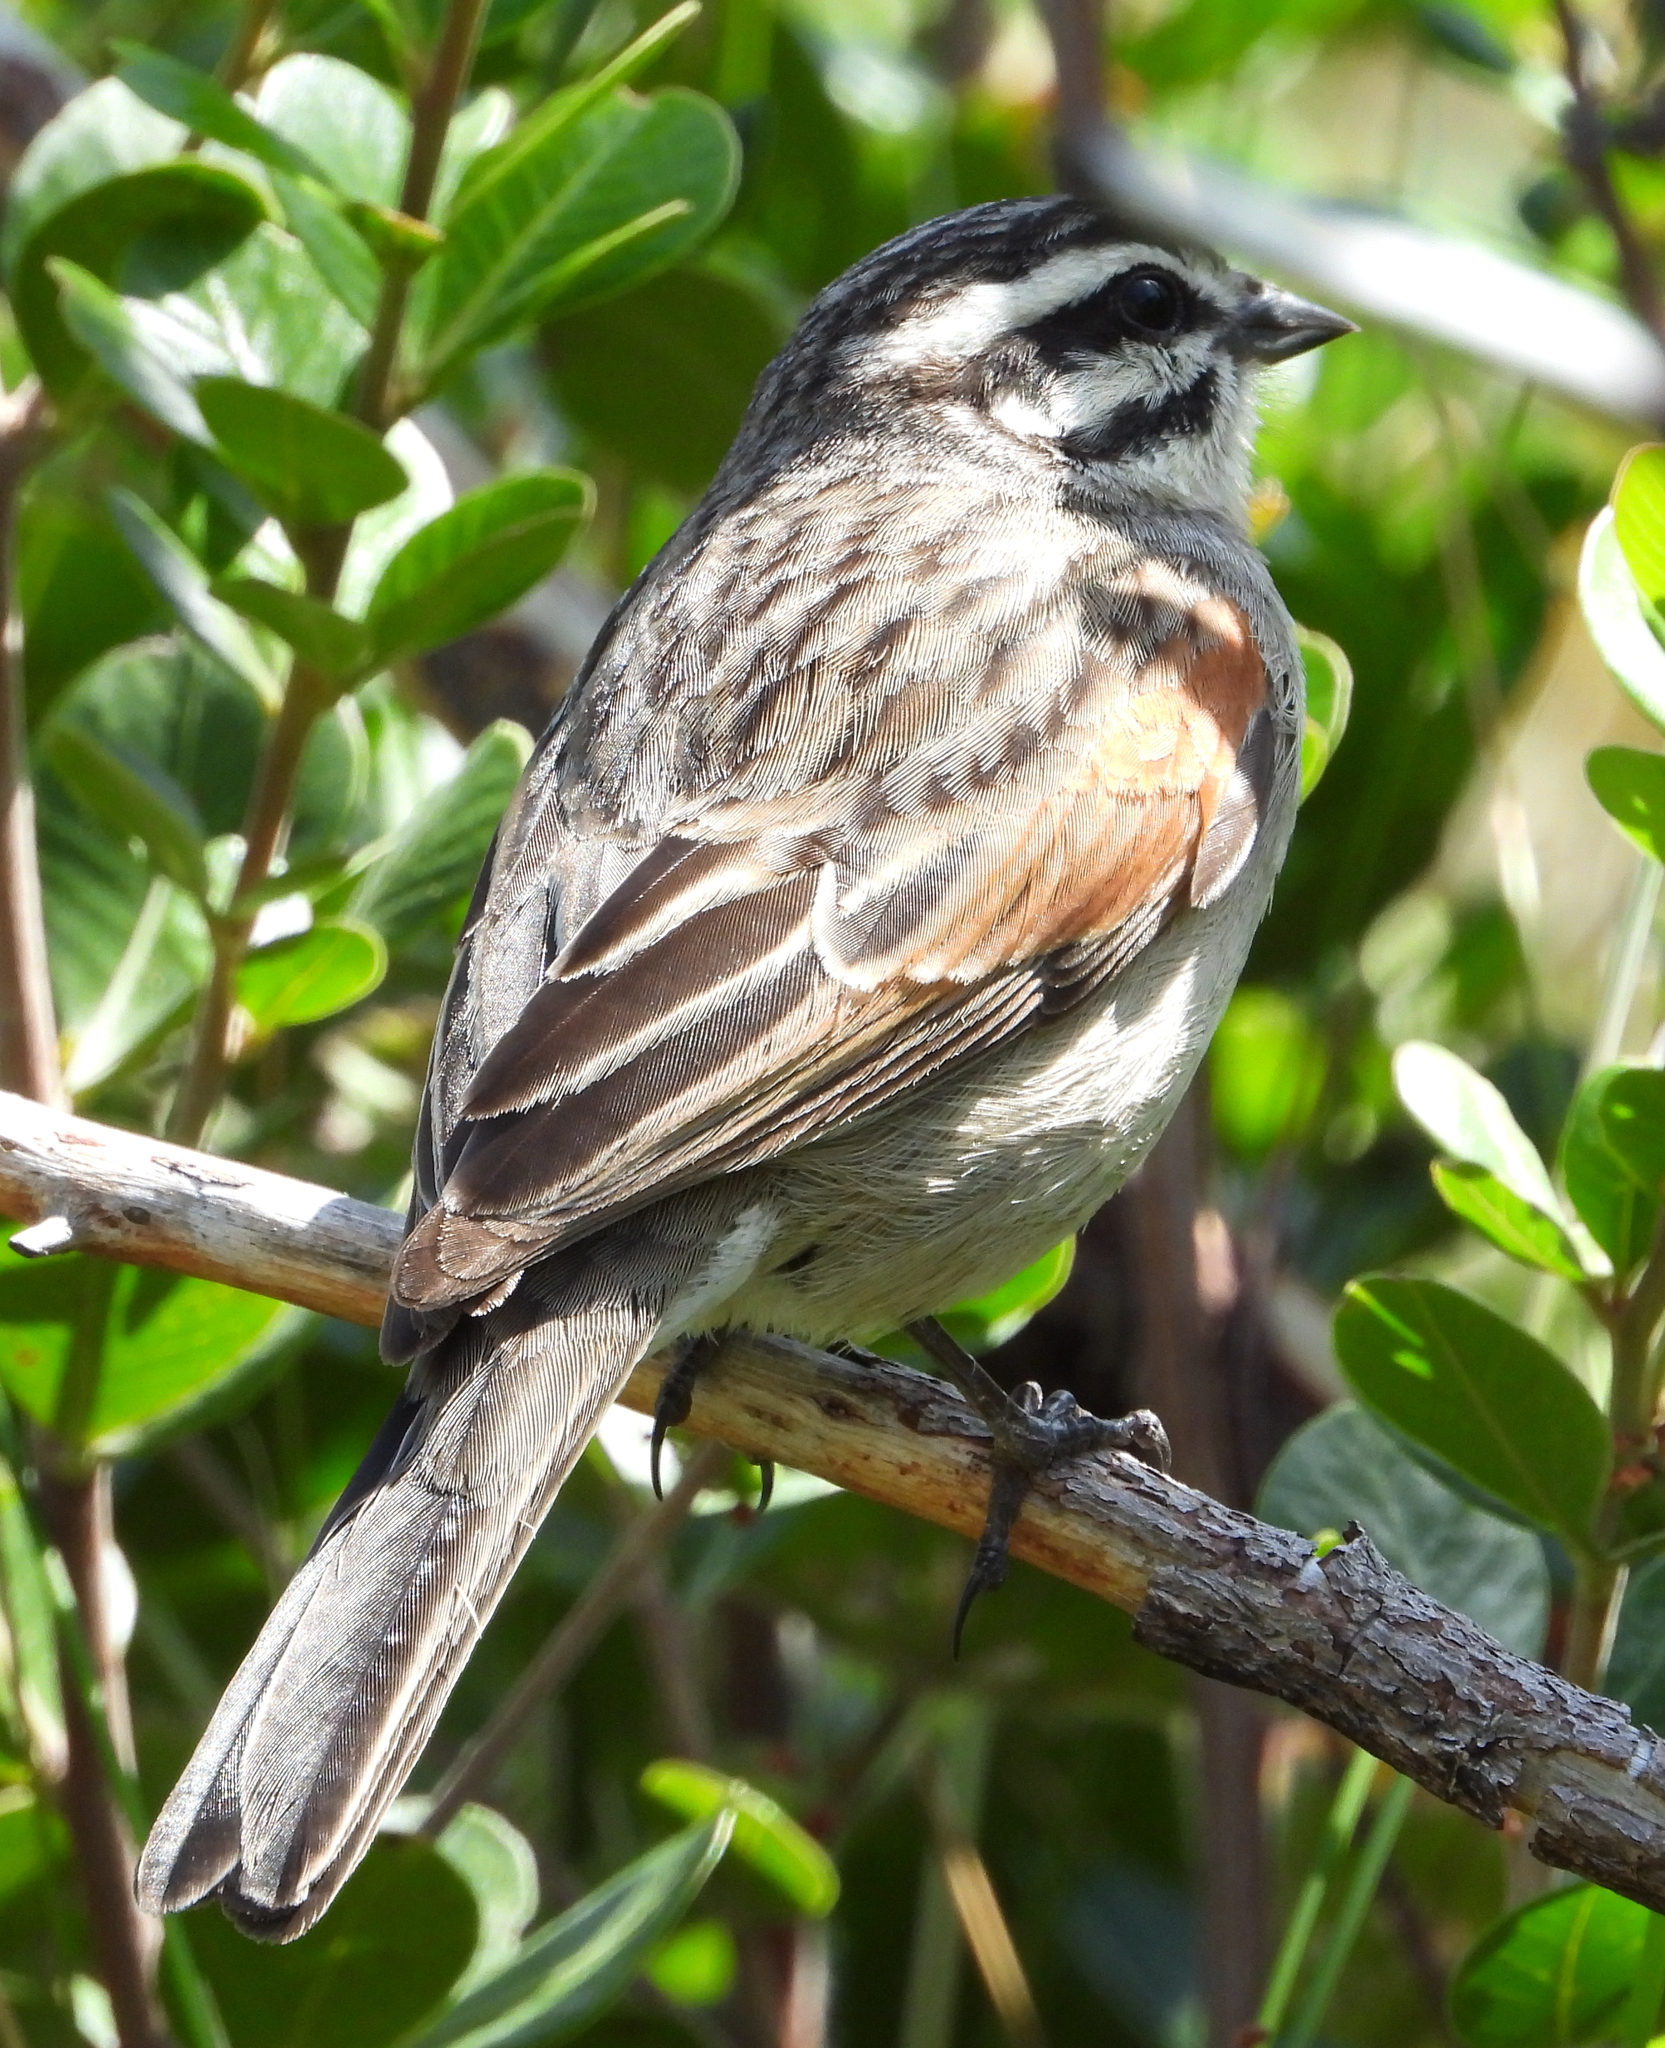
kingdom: Animalia
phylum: Chordata
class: Aves
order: Passeriformes
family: Emberizidae
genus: Emberiza
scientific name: Emberiza capensis
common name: Cape bunting
